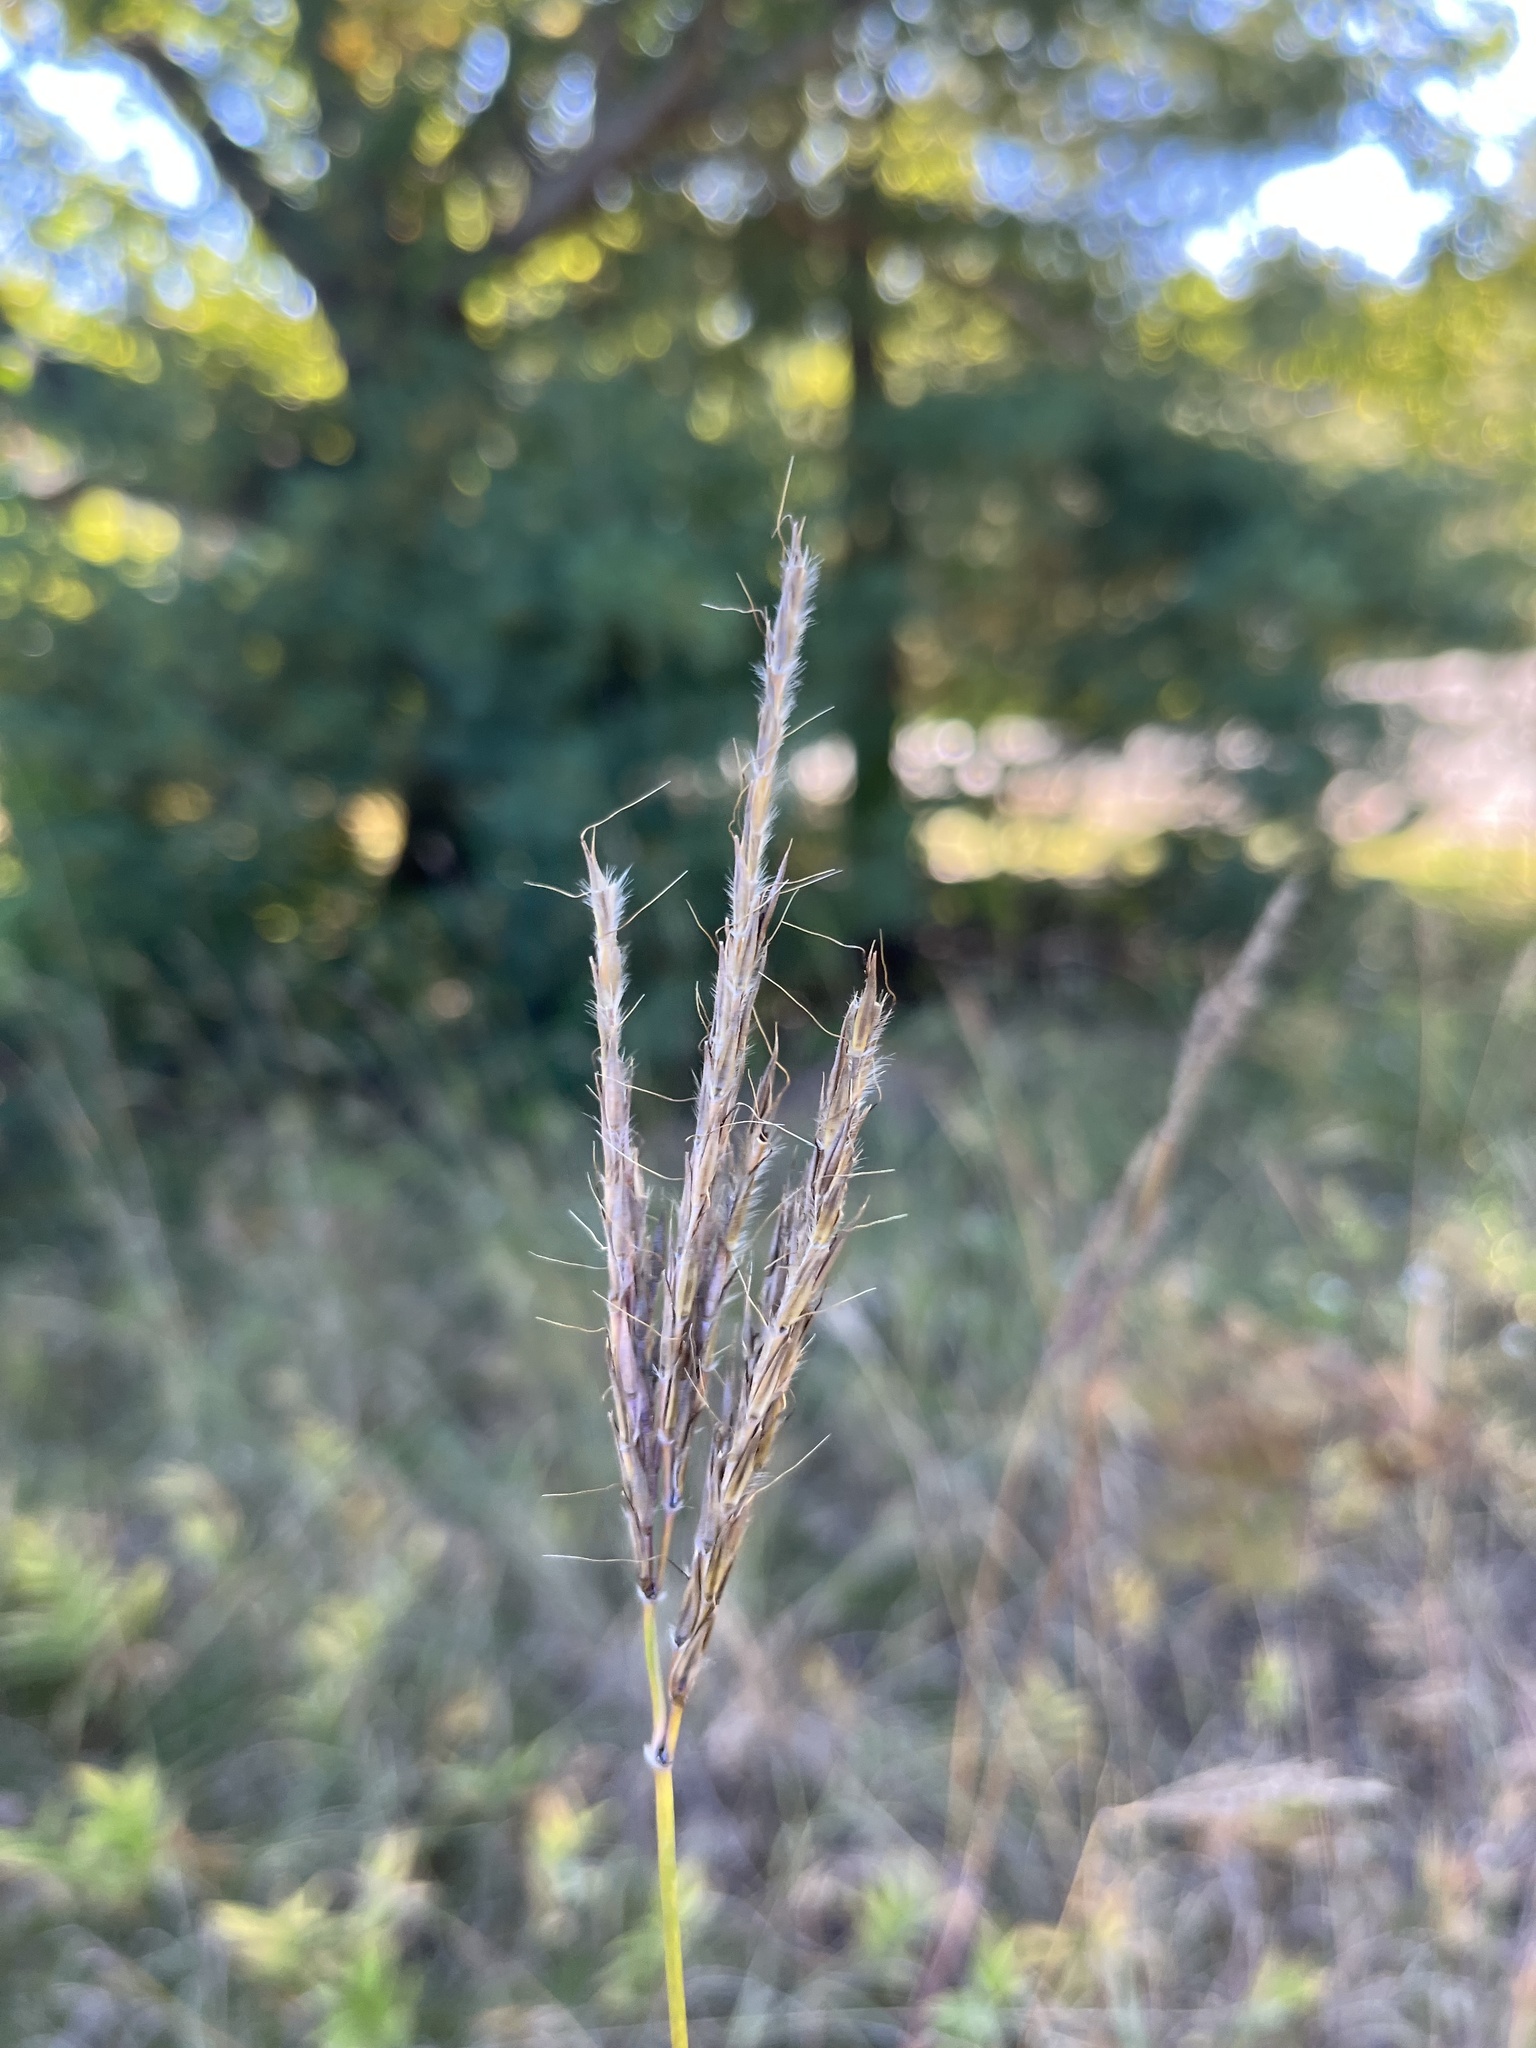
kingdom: Plantae
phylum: Tracheophyta
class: Liliopsida
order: Poales
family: Poaceae
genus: Andropogon
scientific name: Andropogon gerardi
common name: Big bluestem
